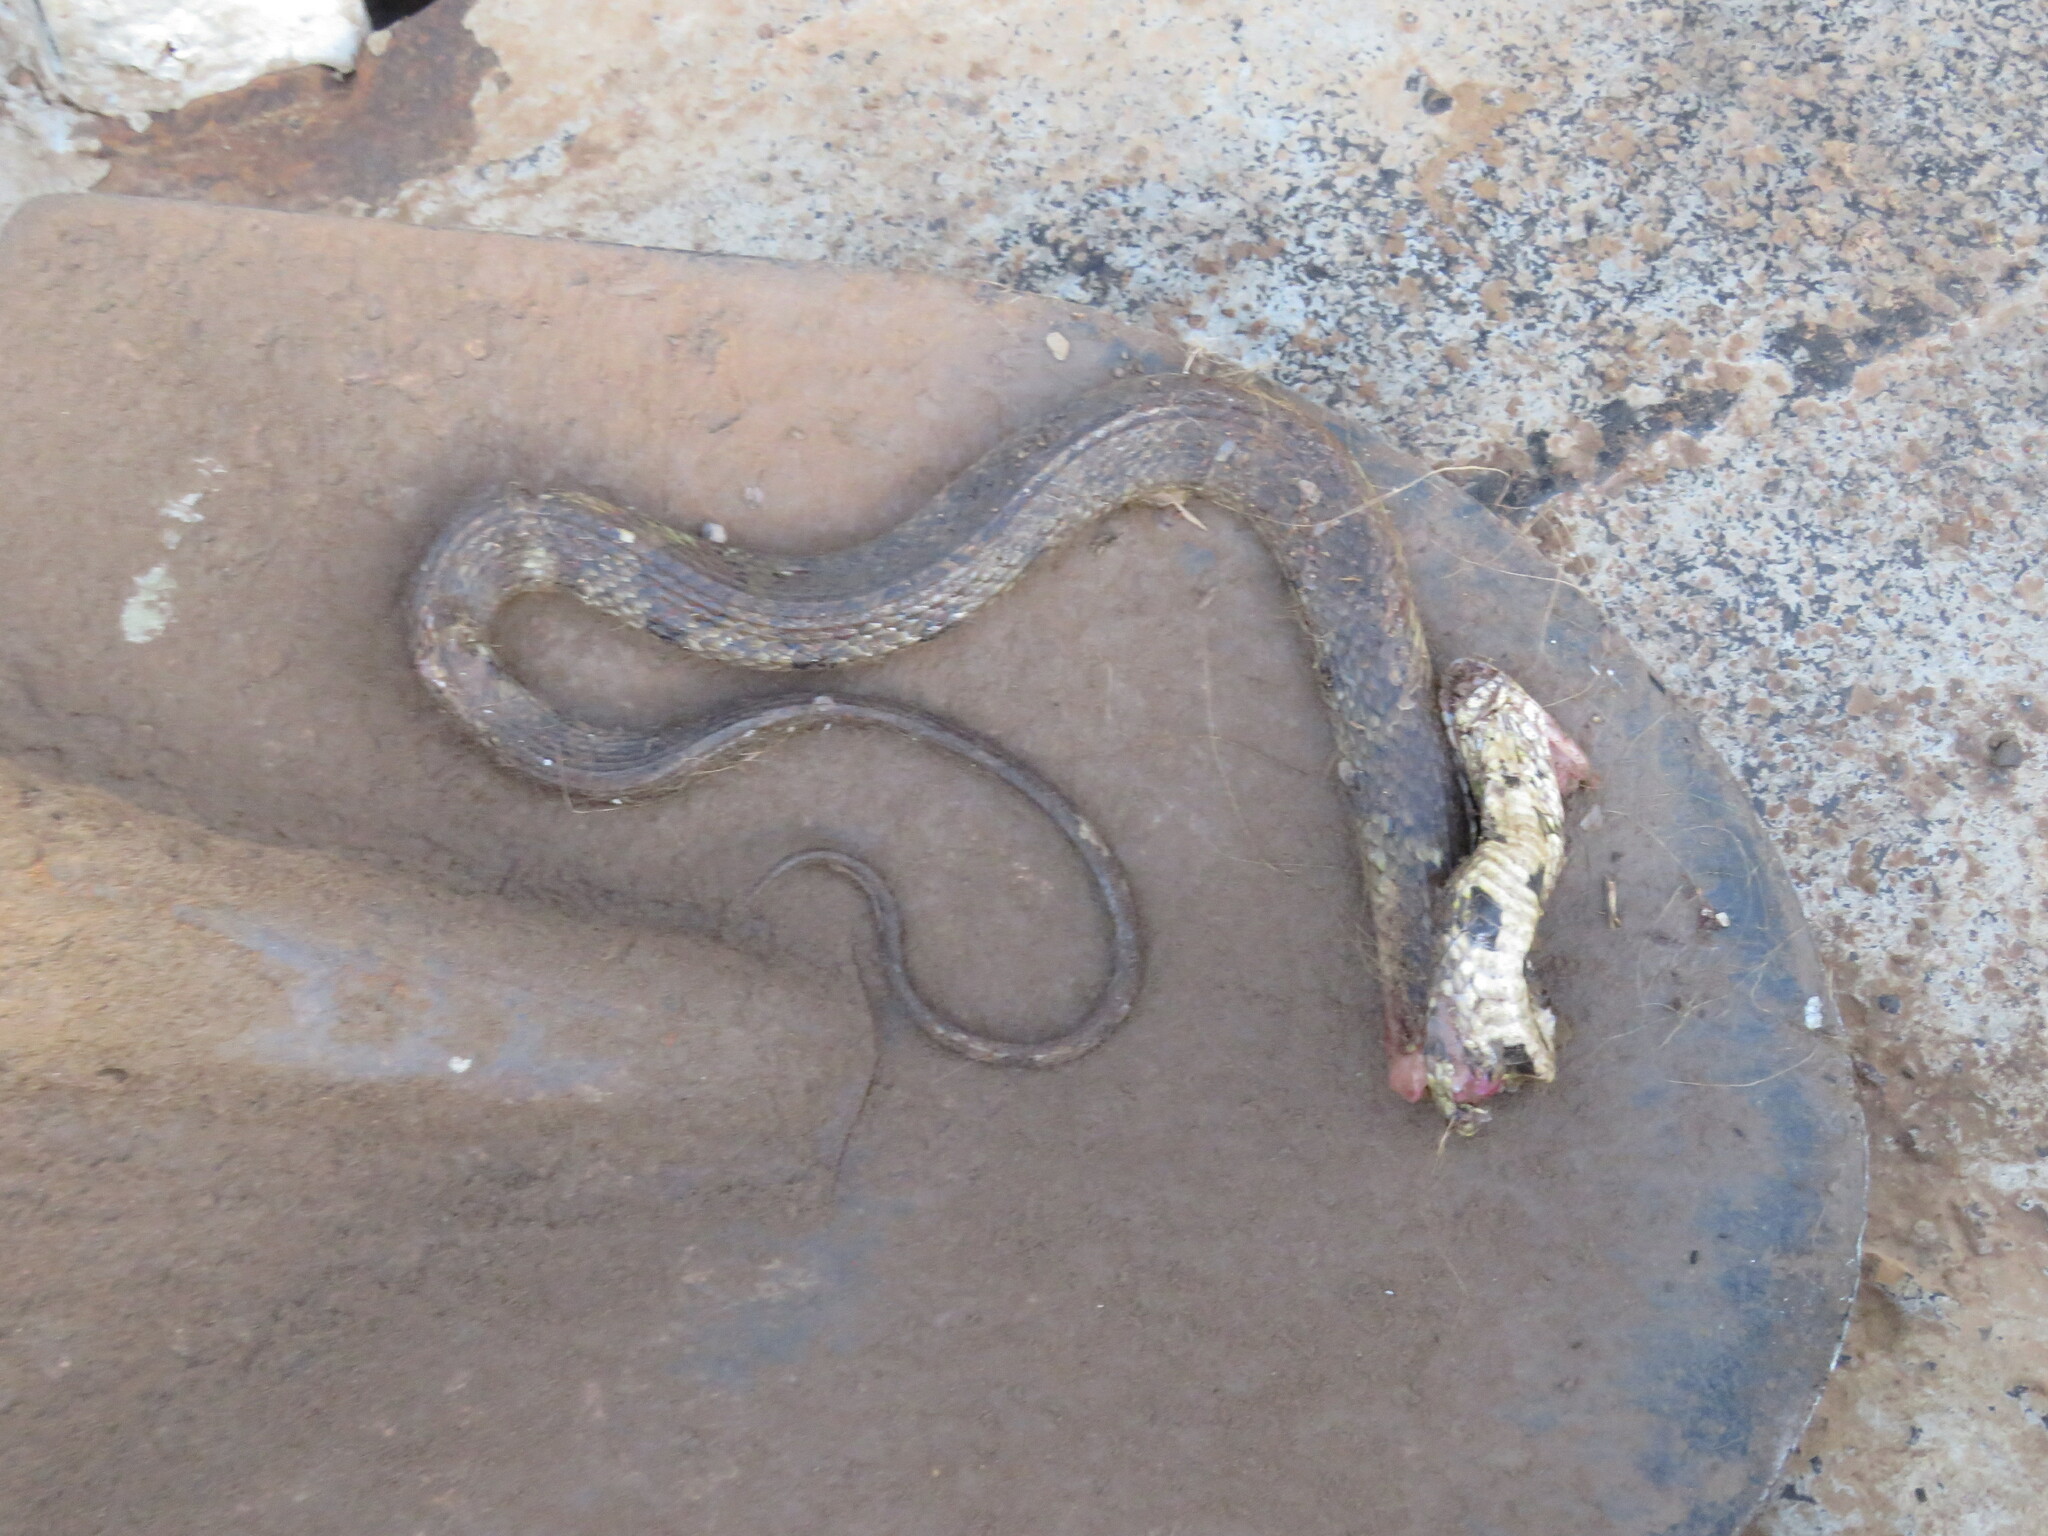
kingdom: Animalia
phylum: Chordata
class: Squamata
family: Colubridae
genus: Helicops
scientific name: Helicops angulatus
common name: Mountain keelback
